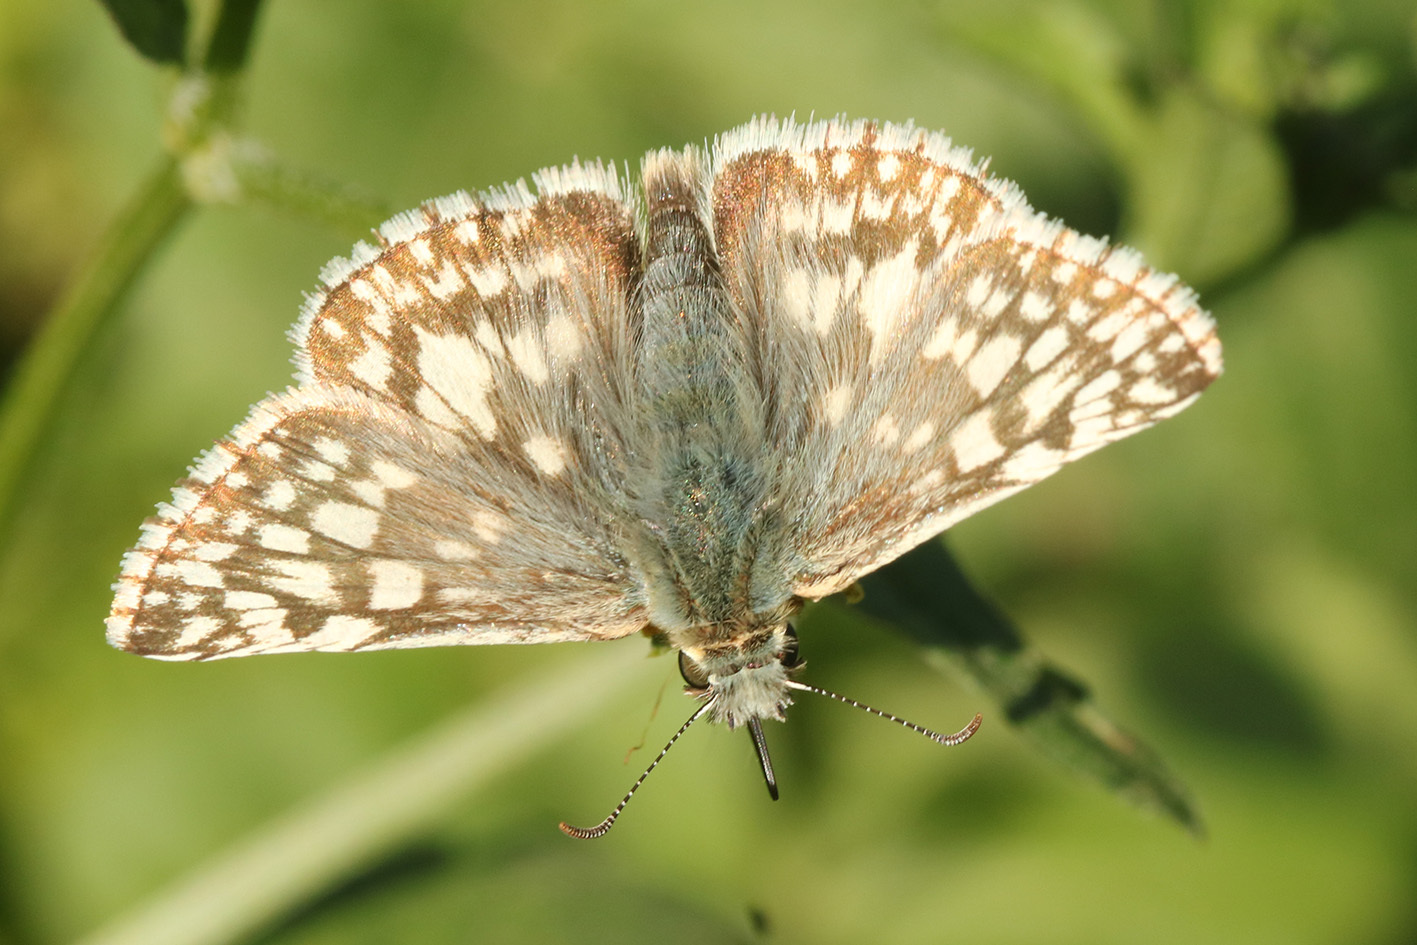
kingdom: Animalia
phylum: Arthropoda
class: Insecta
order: Lepidoptera
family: Hesperiidae
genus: Heliopetes
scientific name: Heliopetes americanus
